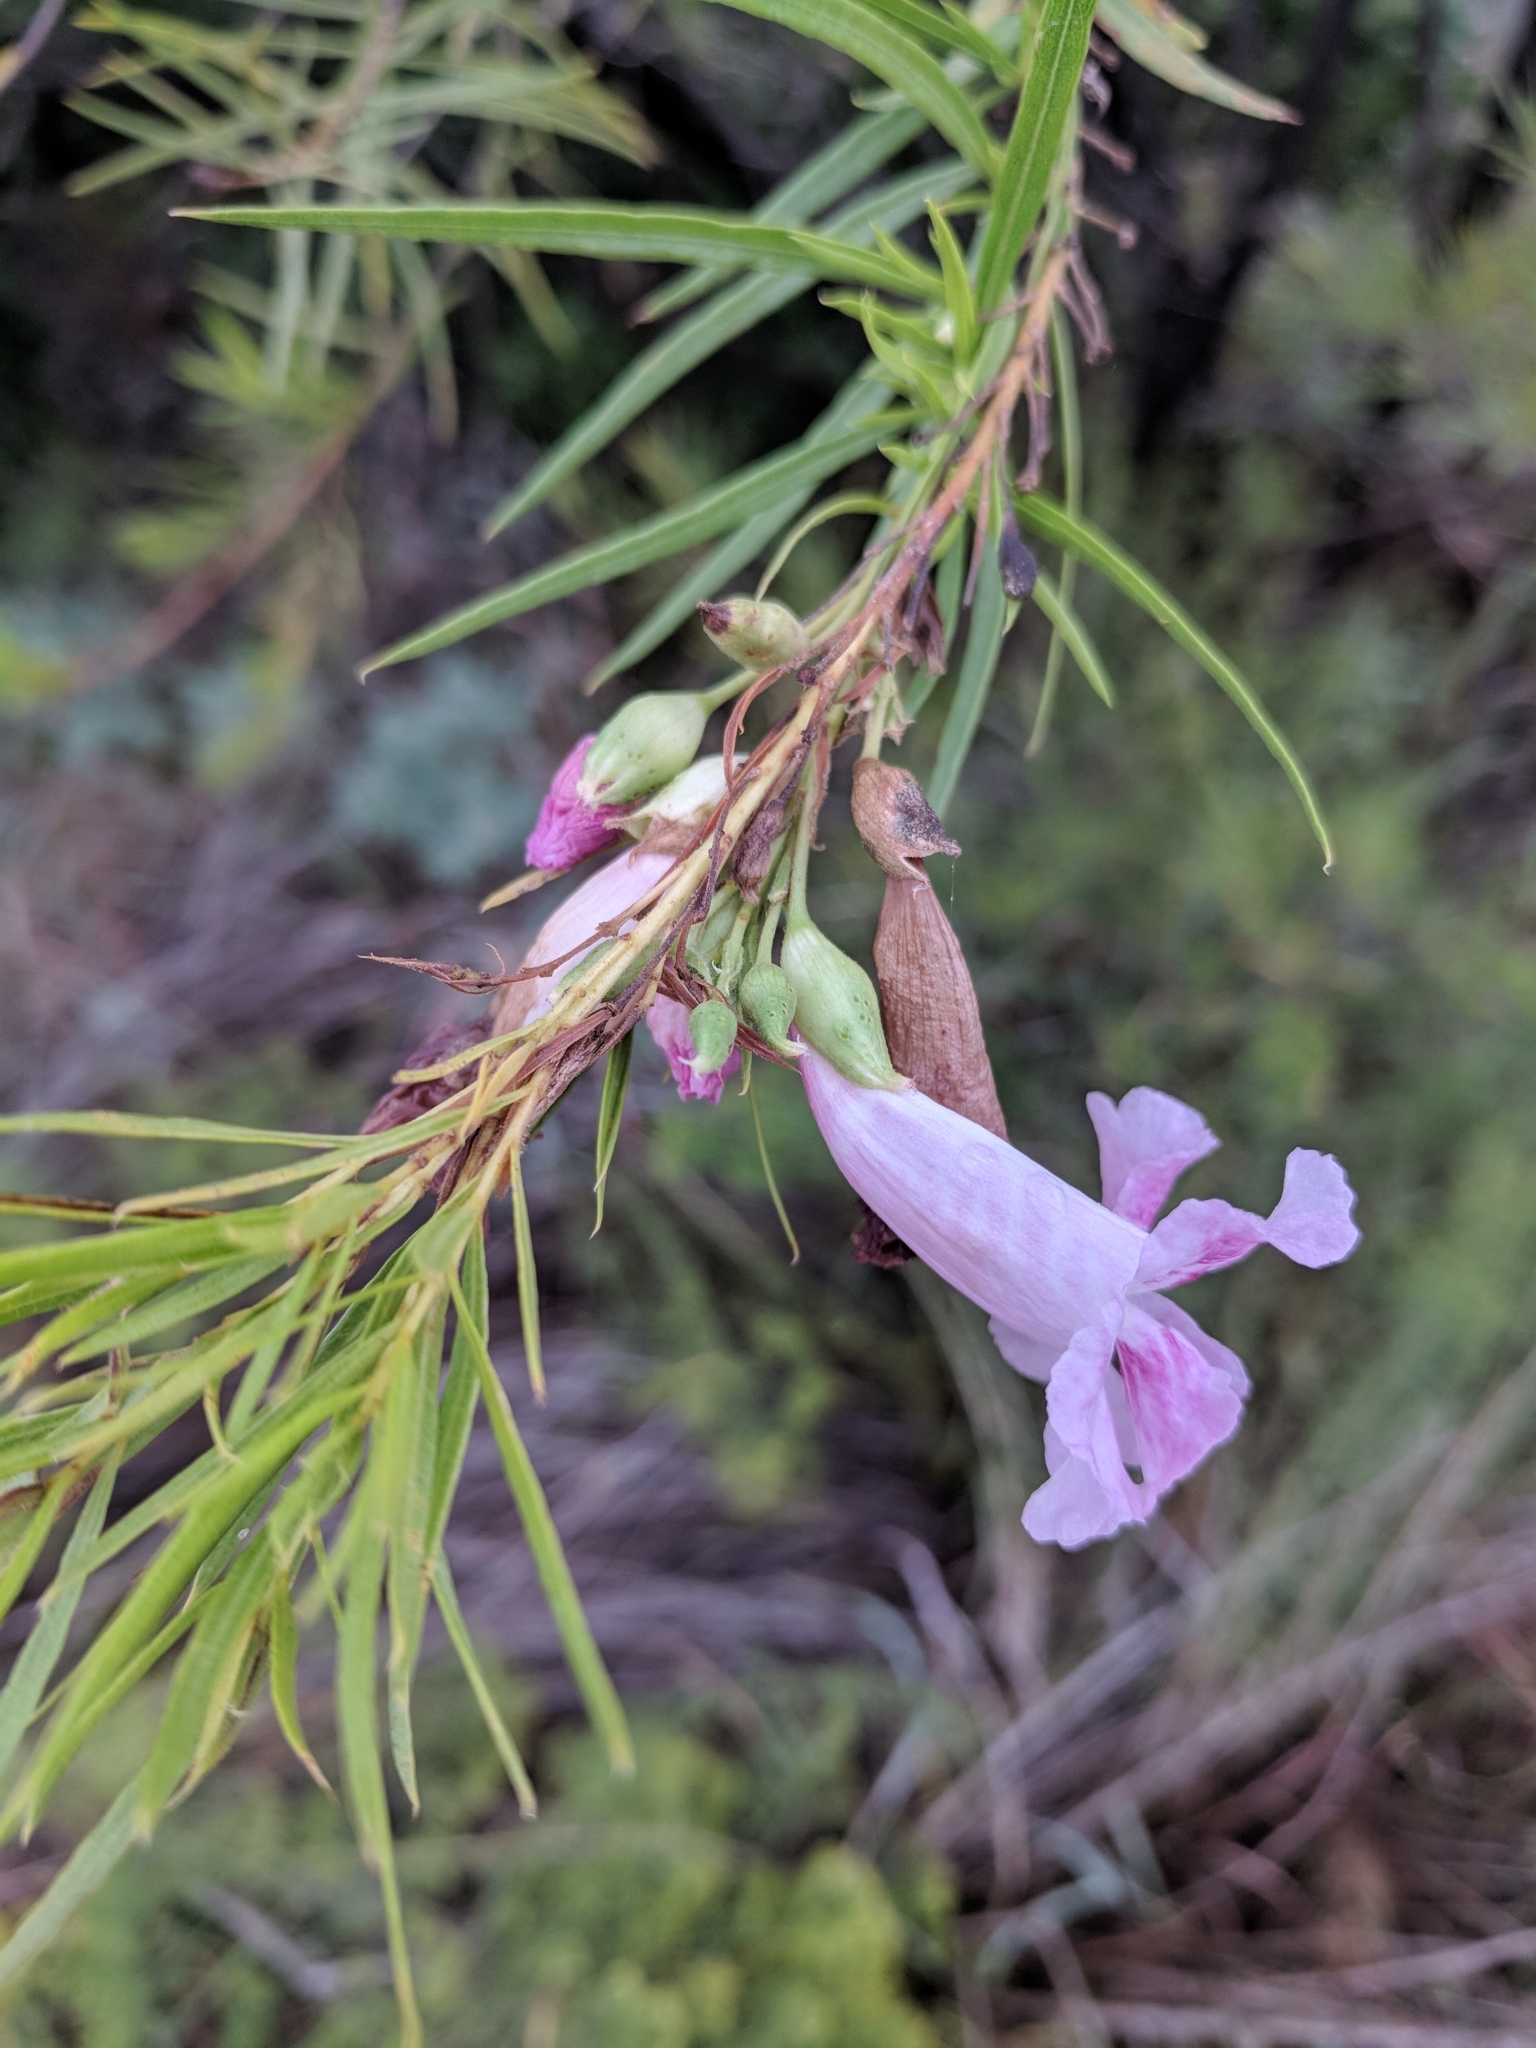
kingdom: Plantae
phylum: Tracheophyta
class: Magnoliopsida
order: Lamiales
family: Bignoniaceae
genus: Chilopsis
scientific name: Chilopsis linearis
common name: Desert-willow
